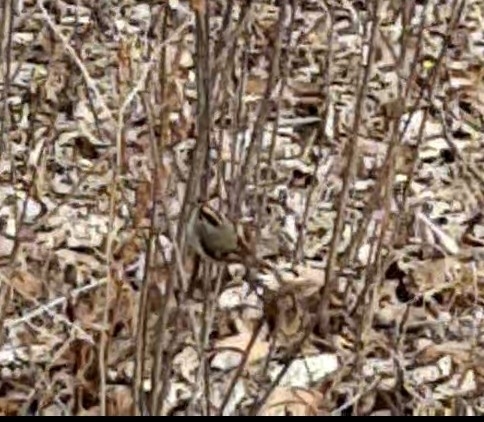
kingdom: Animalia
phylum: Chordata
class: Aves
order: Passeriformes
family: Regulidae
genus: Regulus
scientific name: Regulus satrapa
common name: Golden-crowned kinglet
